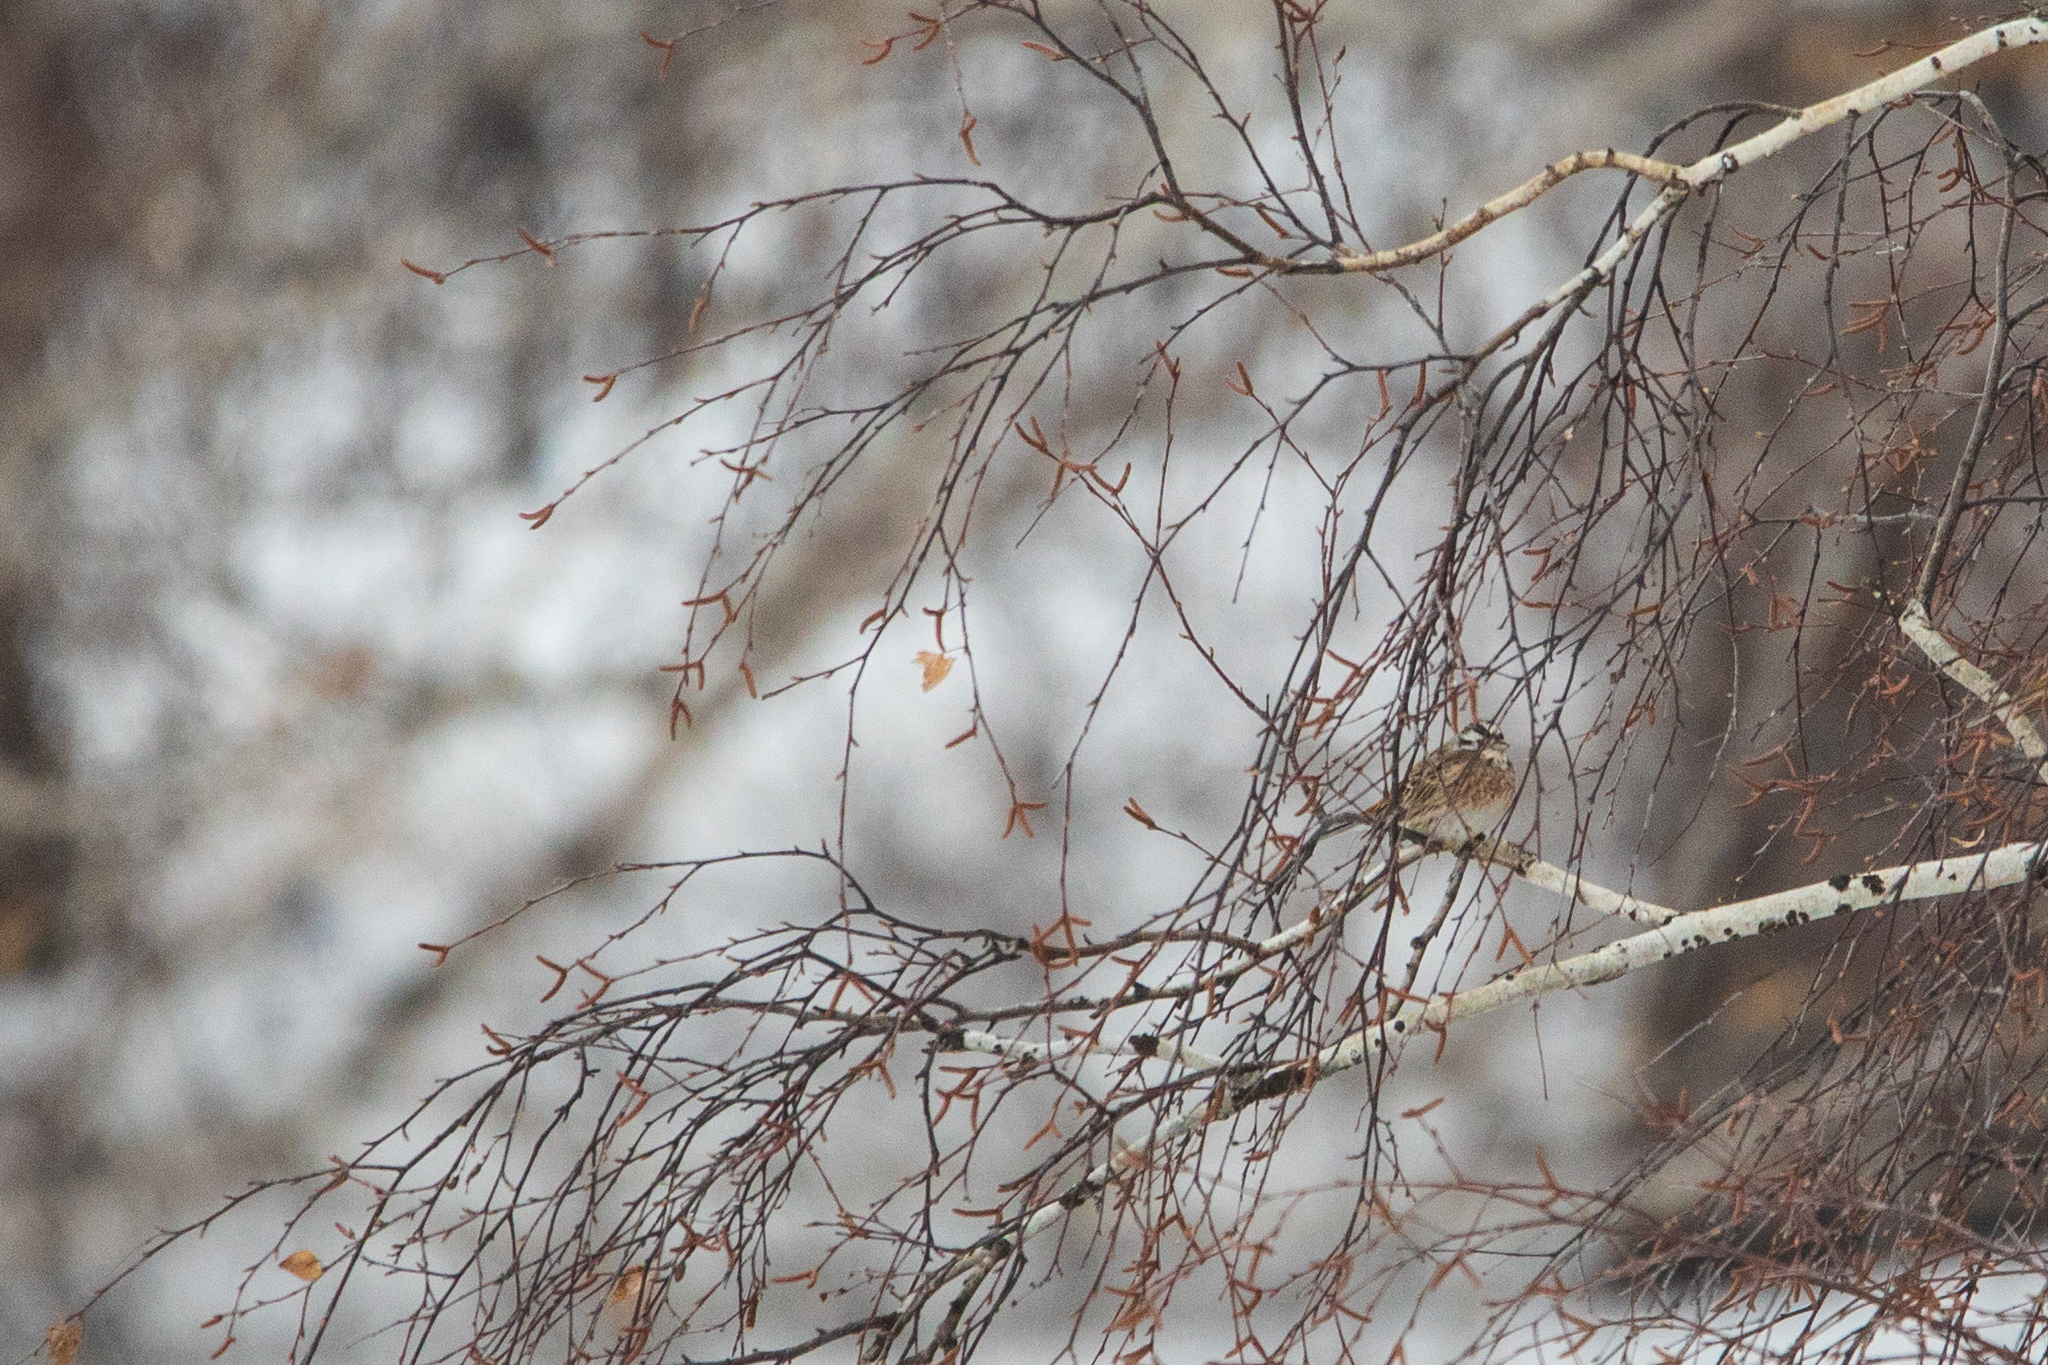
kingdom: Animalia
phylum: Chordata
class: Aves
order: Passeriformes
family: Emberizidae
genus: Emberiza
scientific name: Emberiza leucocephalos
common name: Pine bunting
